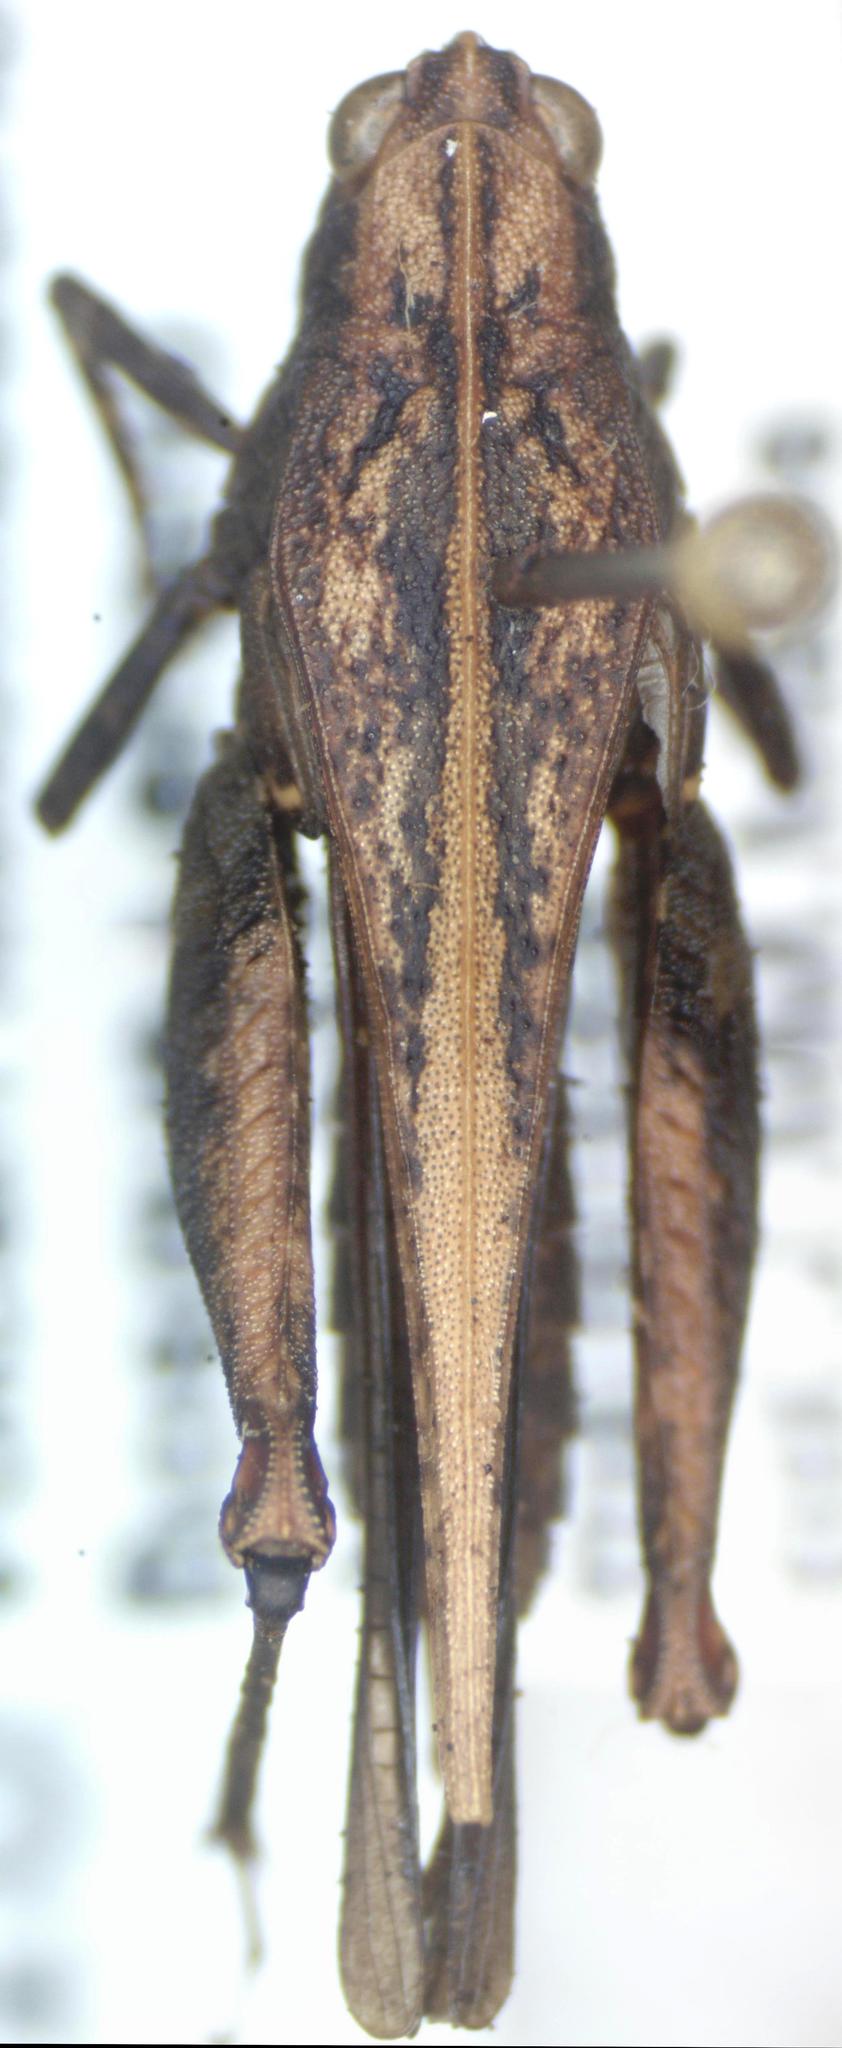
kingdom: Animalia
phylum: Arthropoda
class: Insecta
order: Orthoptera
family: Tetrigidae
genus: Tettigidea
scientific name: Tettigidea laterale
